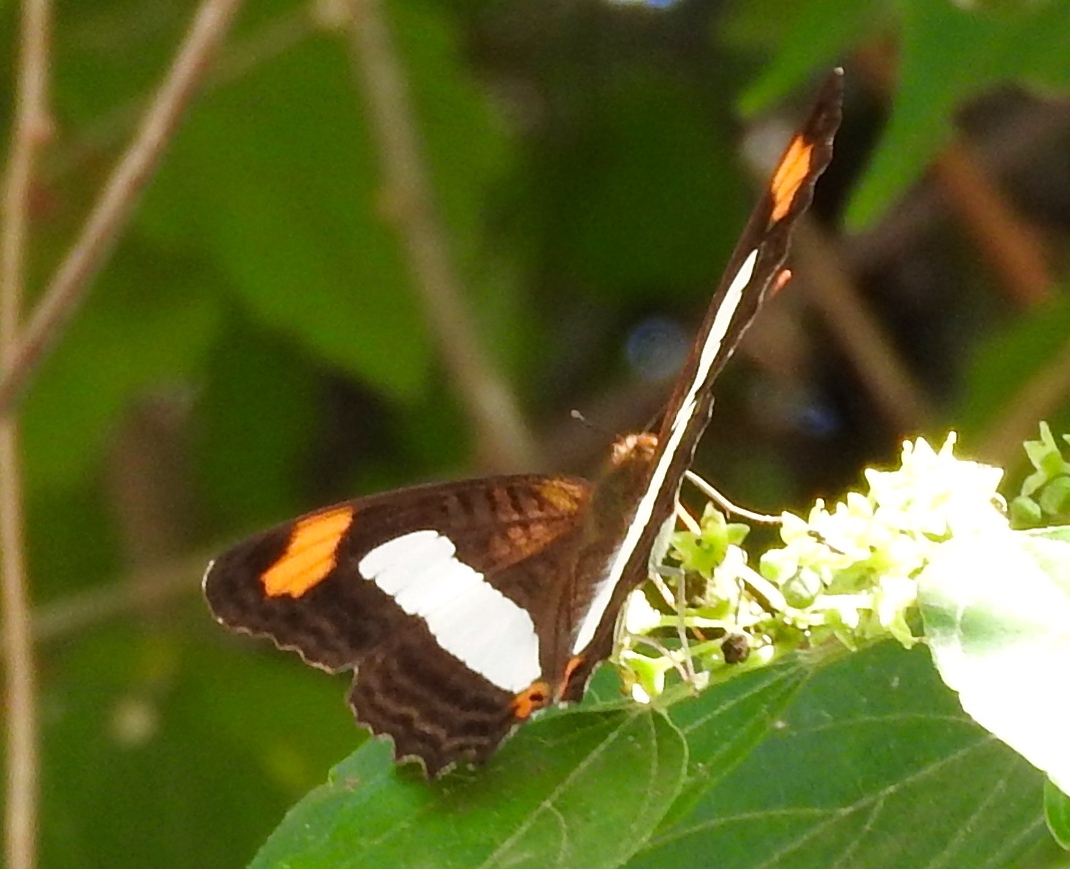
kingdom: Animalia
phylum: Arthropoda
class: Insecta
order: Lepidoptera
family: Nymphalidae
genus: Limenitis
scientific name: Limenitis iphiclus
